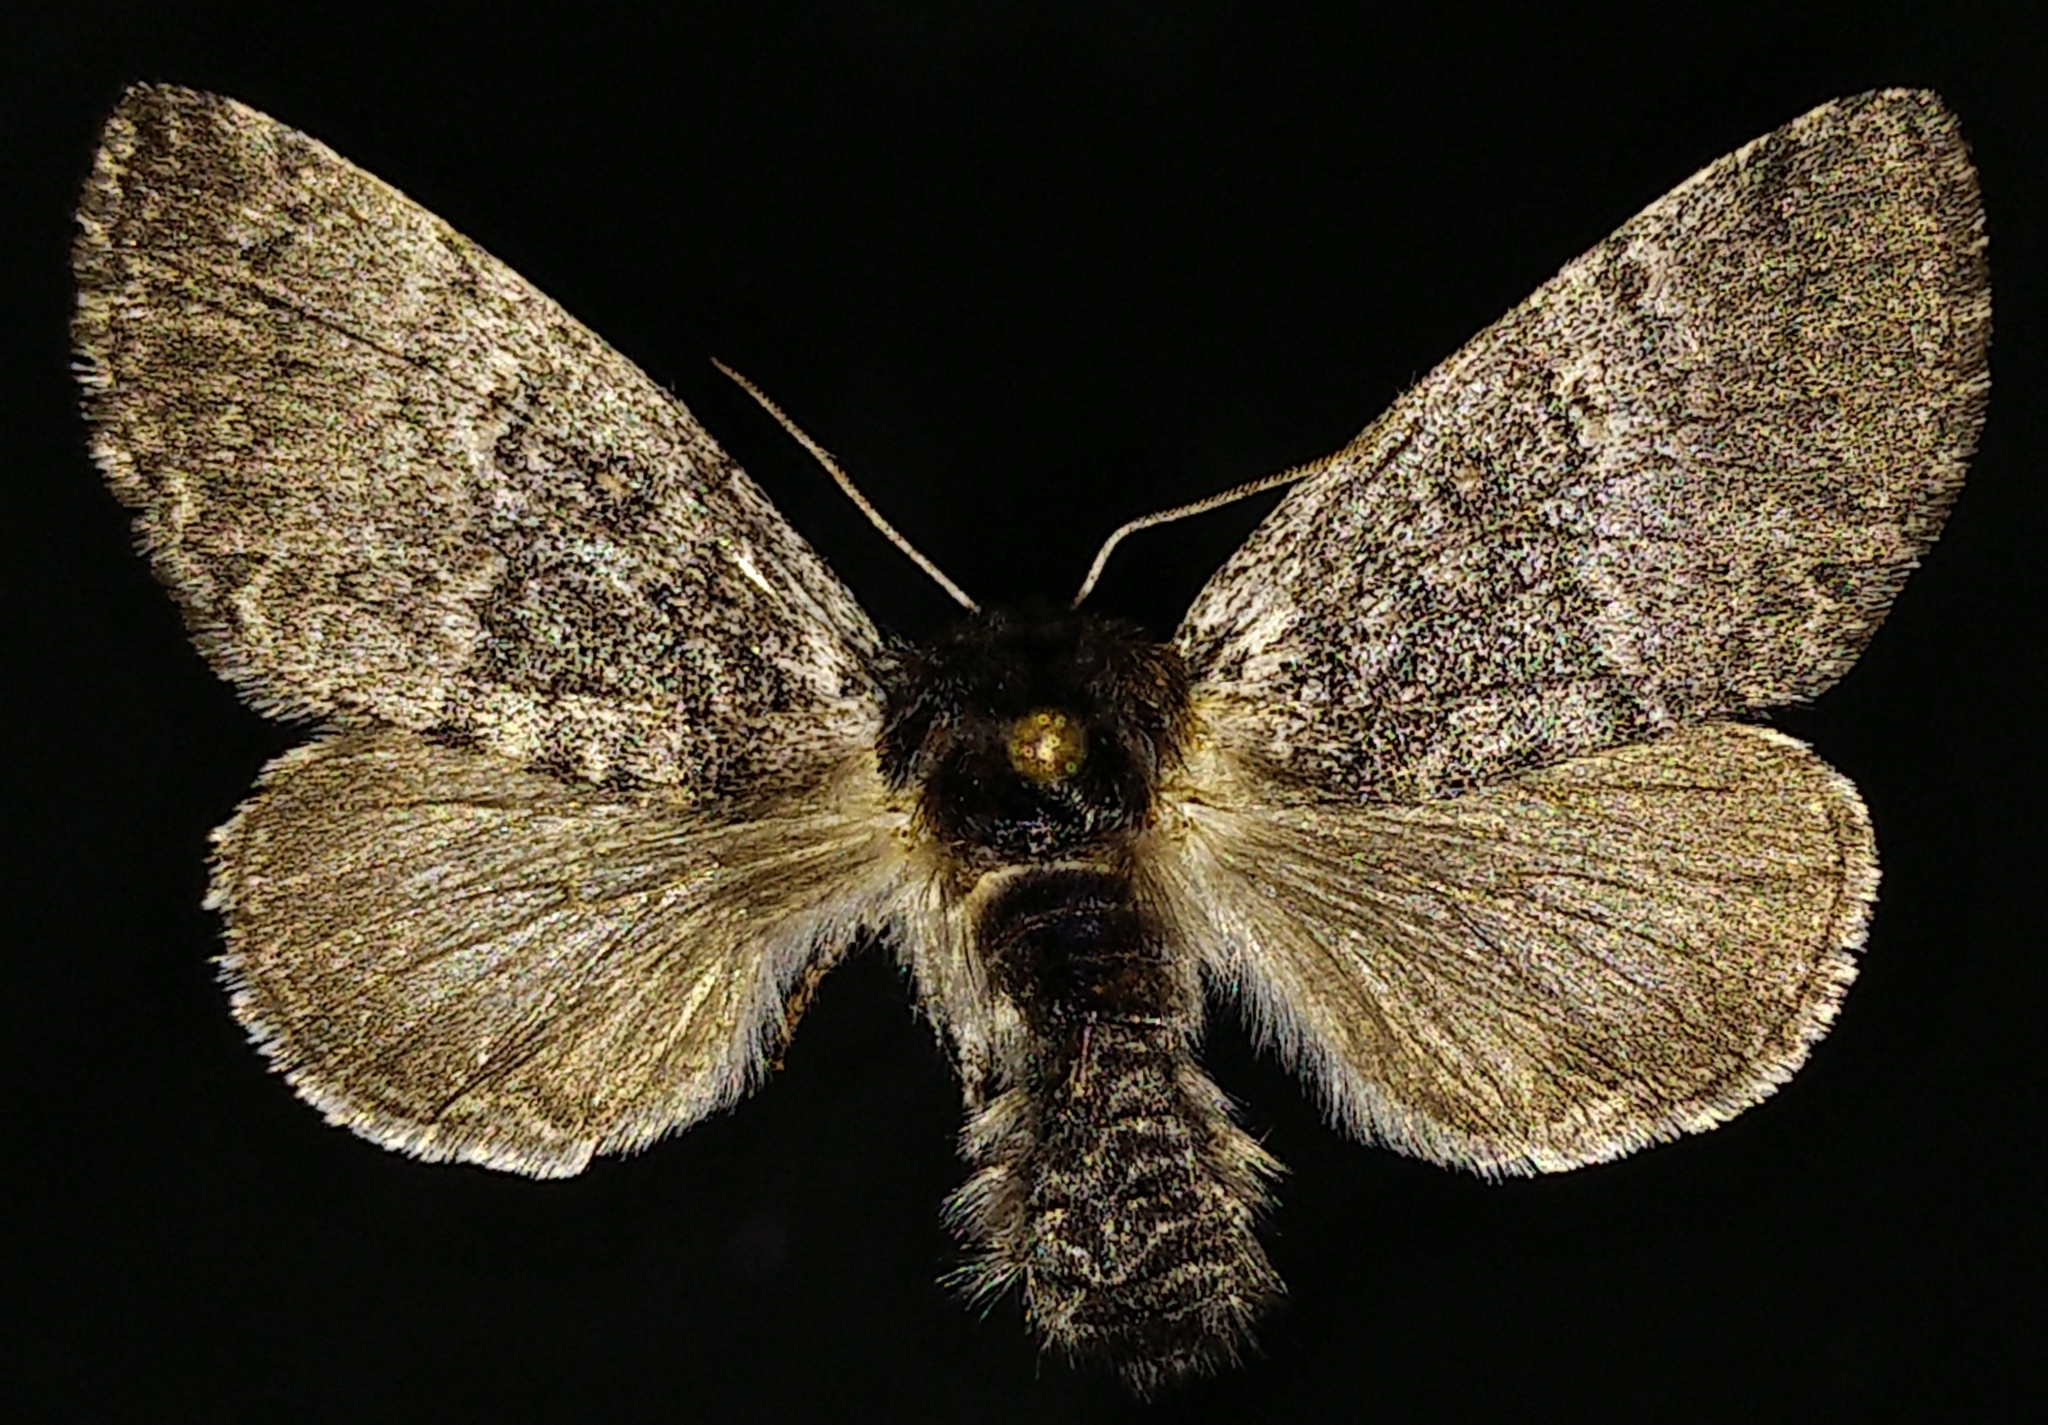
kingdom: Animalia
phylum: Arthropoda
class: Insecta
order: Lepidoptera
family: Noctuidae
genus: Colocasia
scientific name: Colocasia propinquilinea
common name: Close-banded demas
